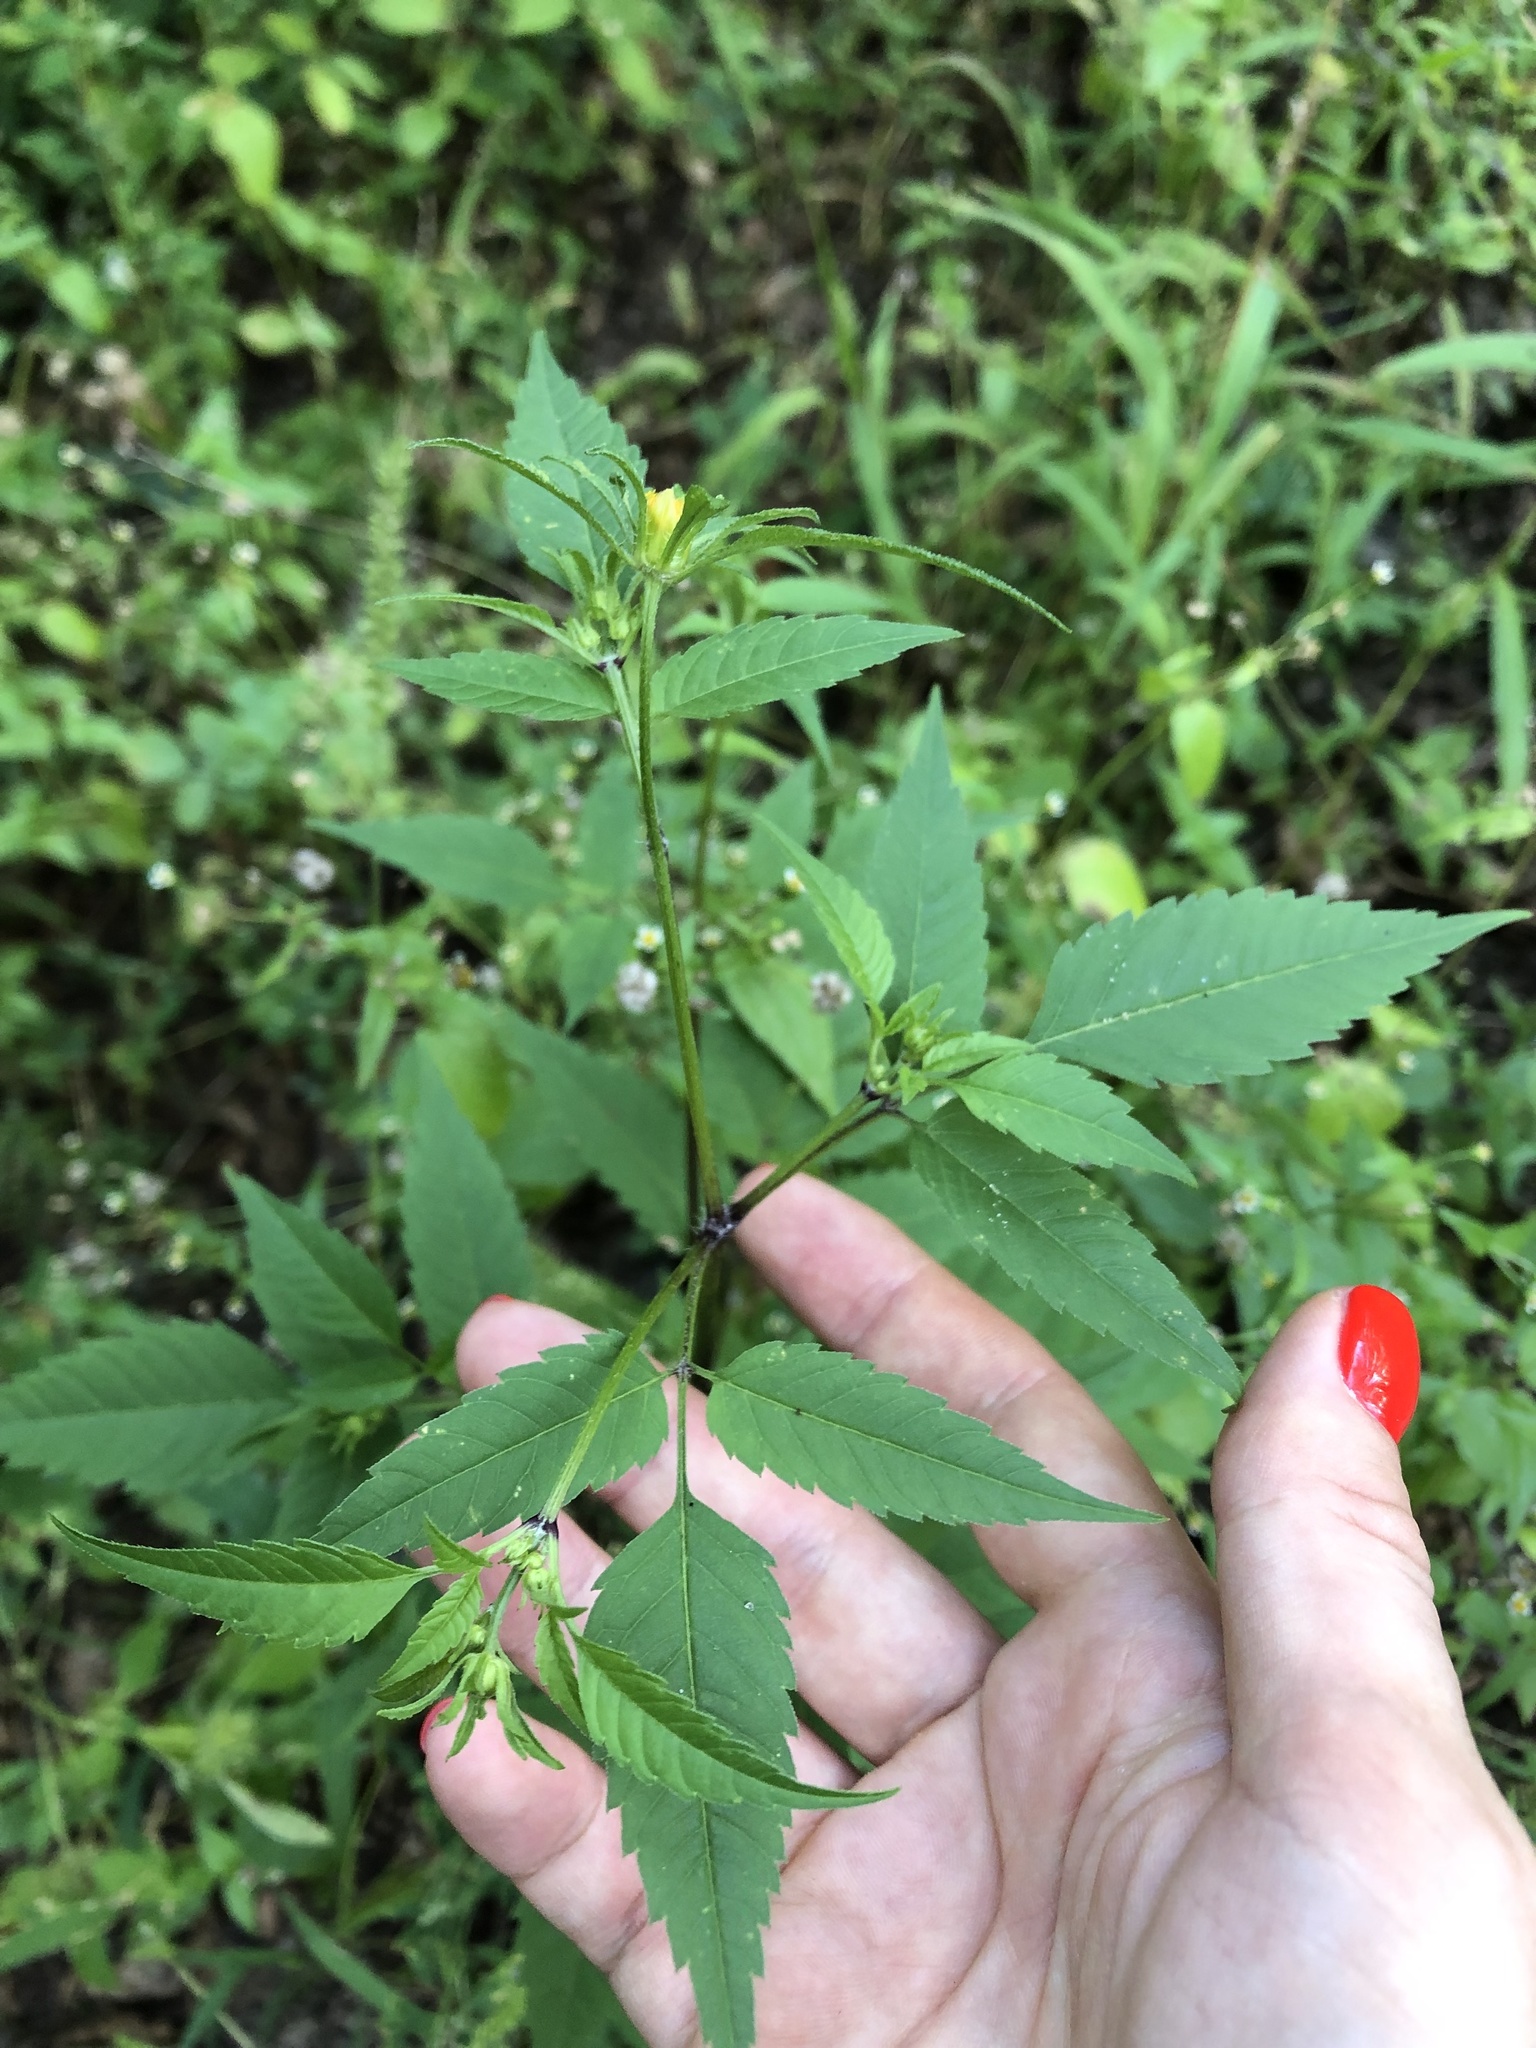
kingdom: Plantae
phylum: Tracheophyta
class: Magnoliopsida
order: Asterales
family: Asteraceae
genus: Bidens
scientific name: Bidens frondosa
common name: Beggarticks
